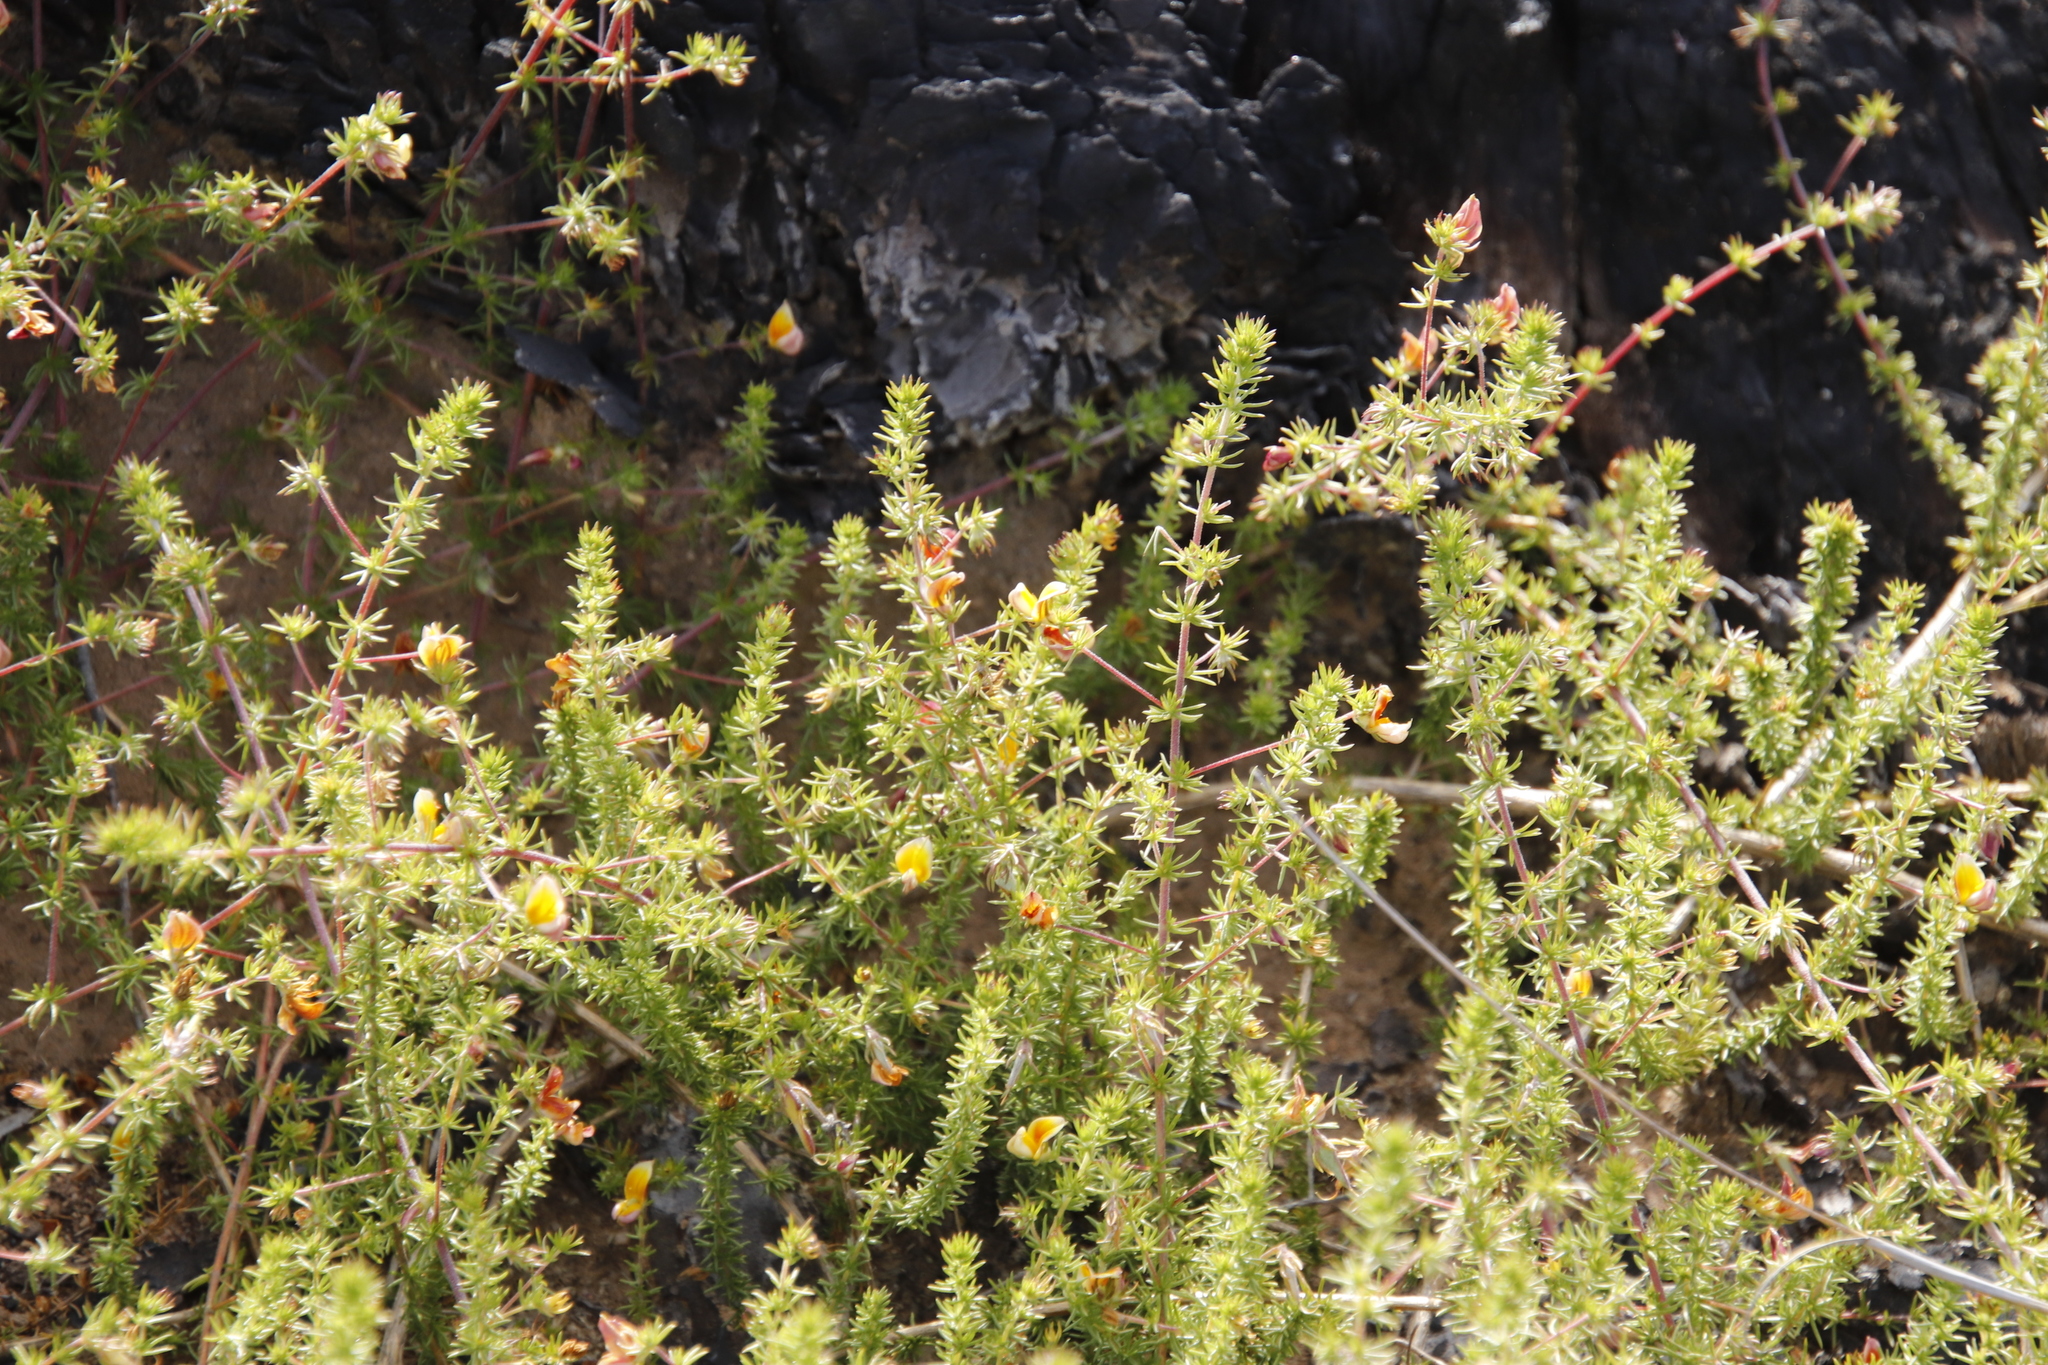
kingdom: Plantae
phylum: Tracheophyta
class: Magnoliopsida
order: Fabales
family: Fabaceae
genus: Aspalathus
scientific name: Aspalathus retroflexa
